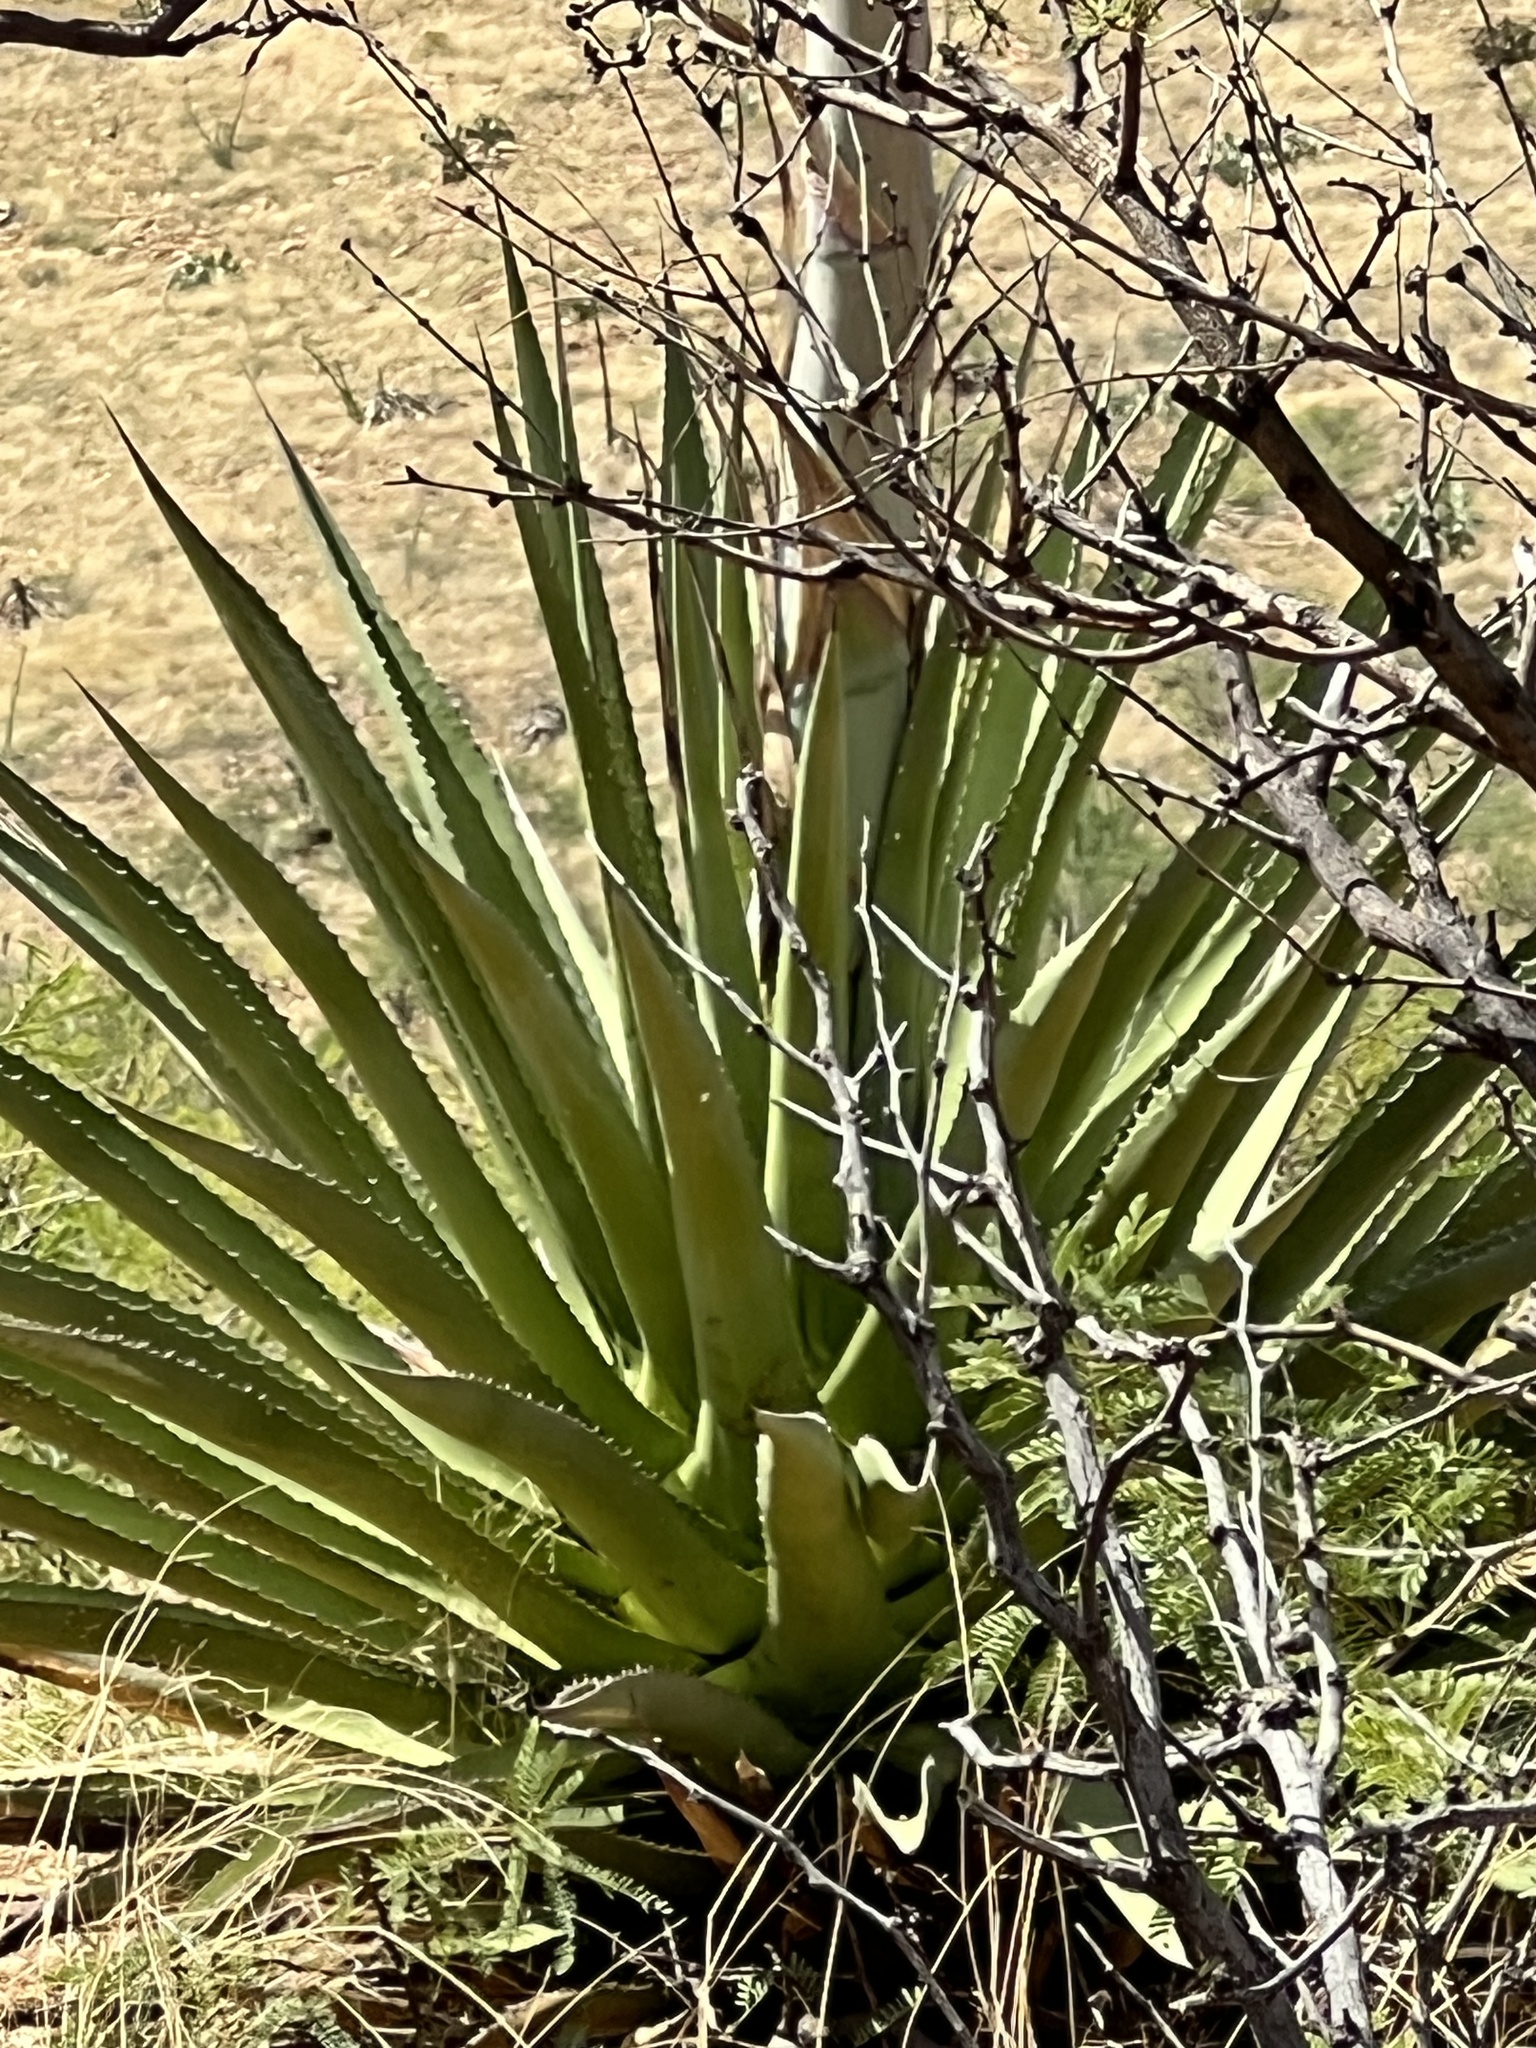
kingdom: Plantae
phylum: Tracheophyta
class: Liliopsida
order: Asparagales
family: Asparagaceae
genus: Agave
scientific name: Agave palmeri
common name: Palmer agave
